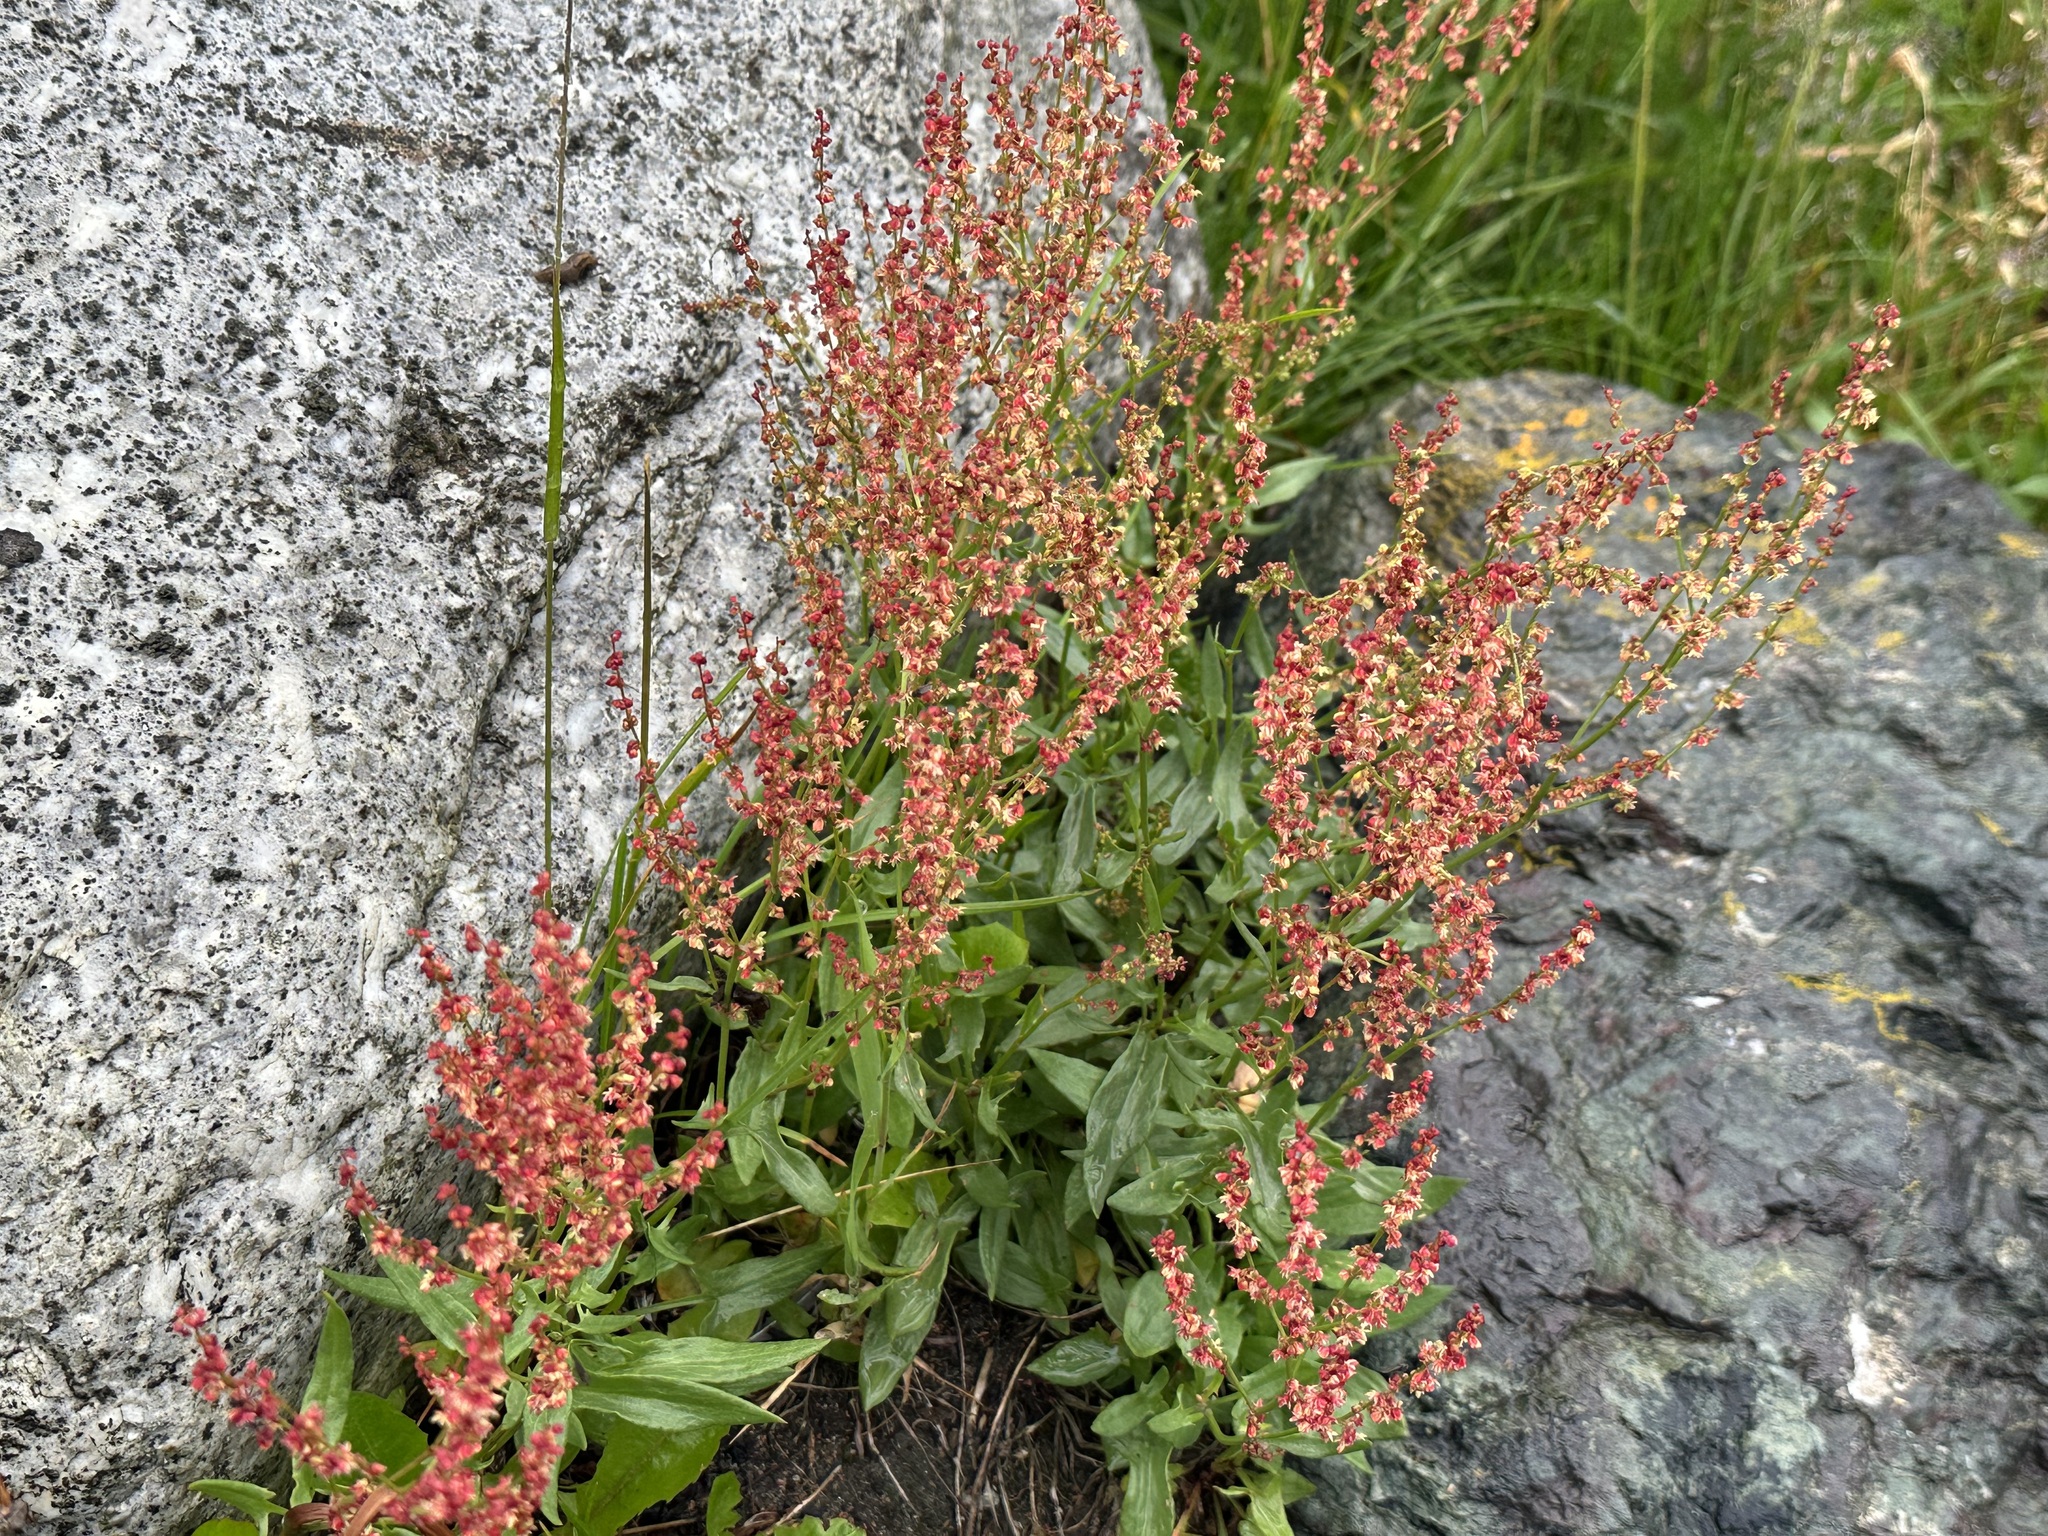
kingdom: Plantae
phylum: Tracheophyta
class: Magnoliopsida
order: Caryophyllales
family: Polygonaceae
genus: Rumex
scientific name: Rumex acetosella
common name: Common sheep sorrel
